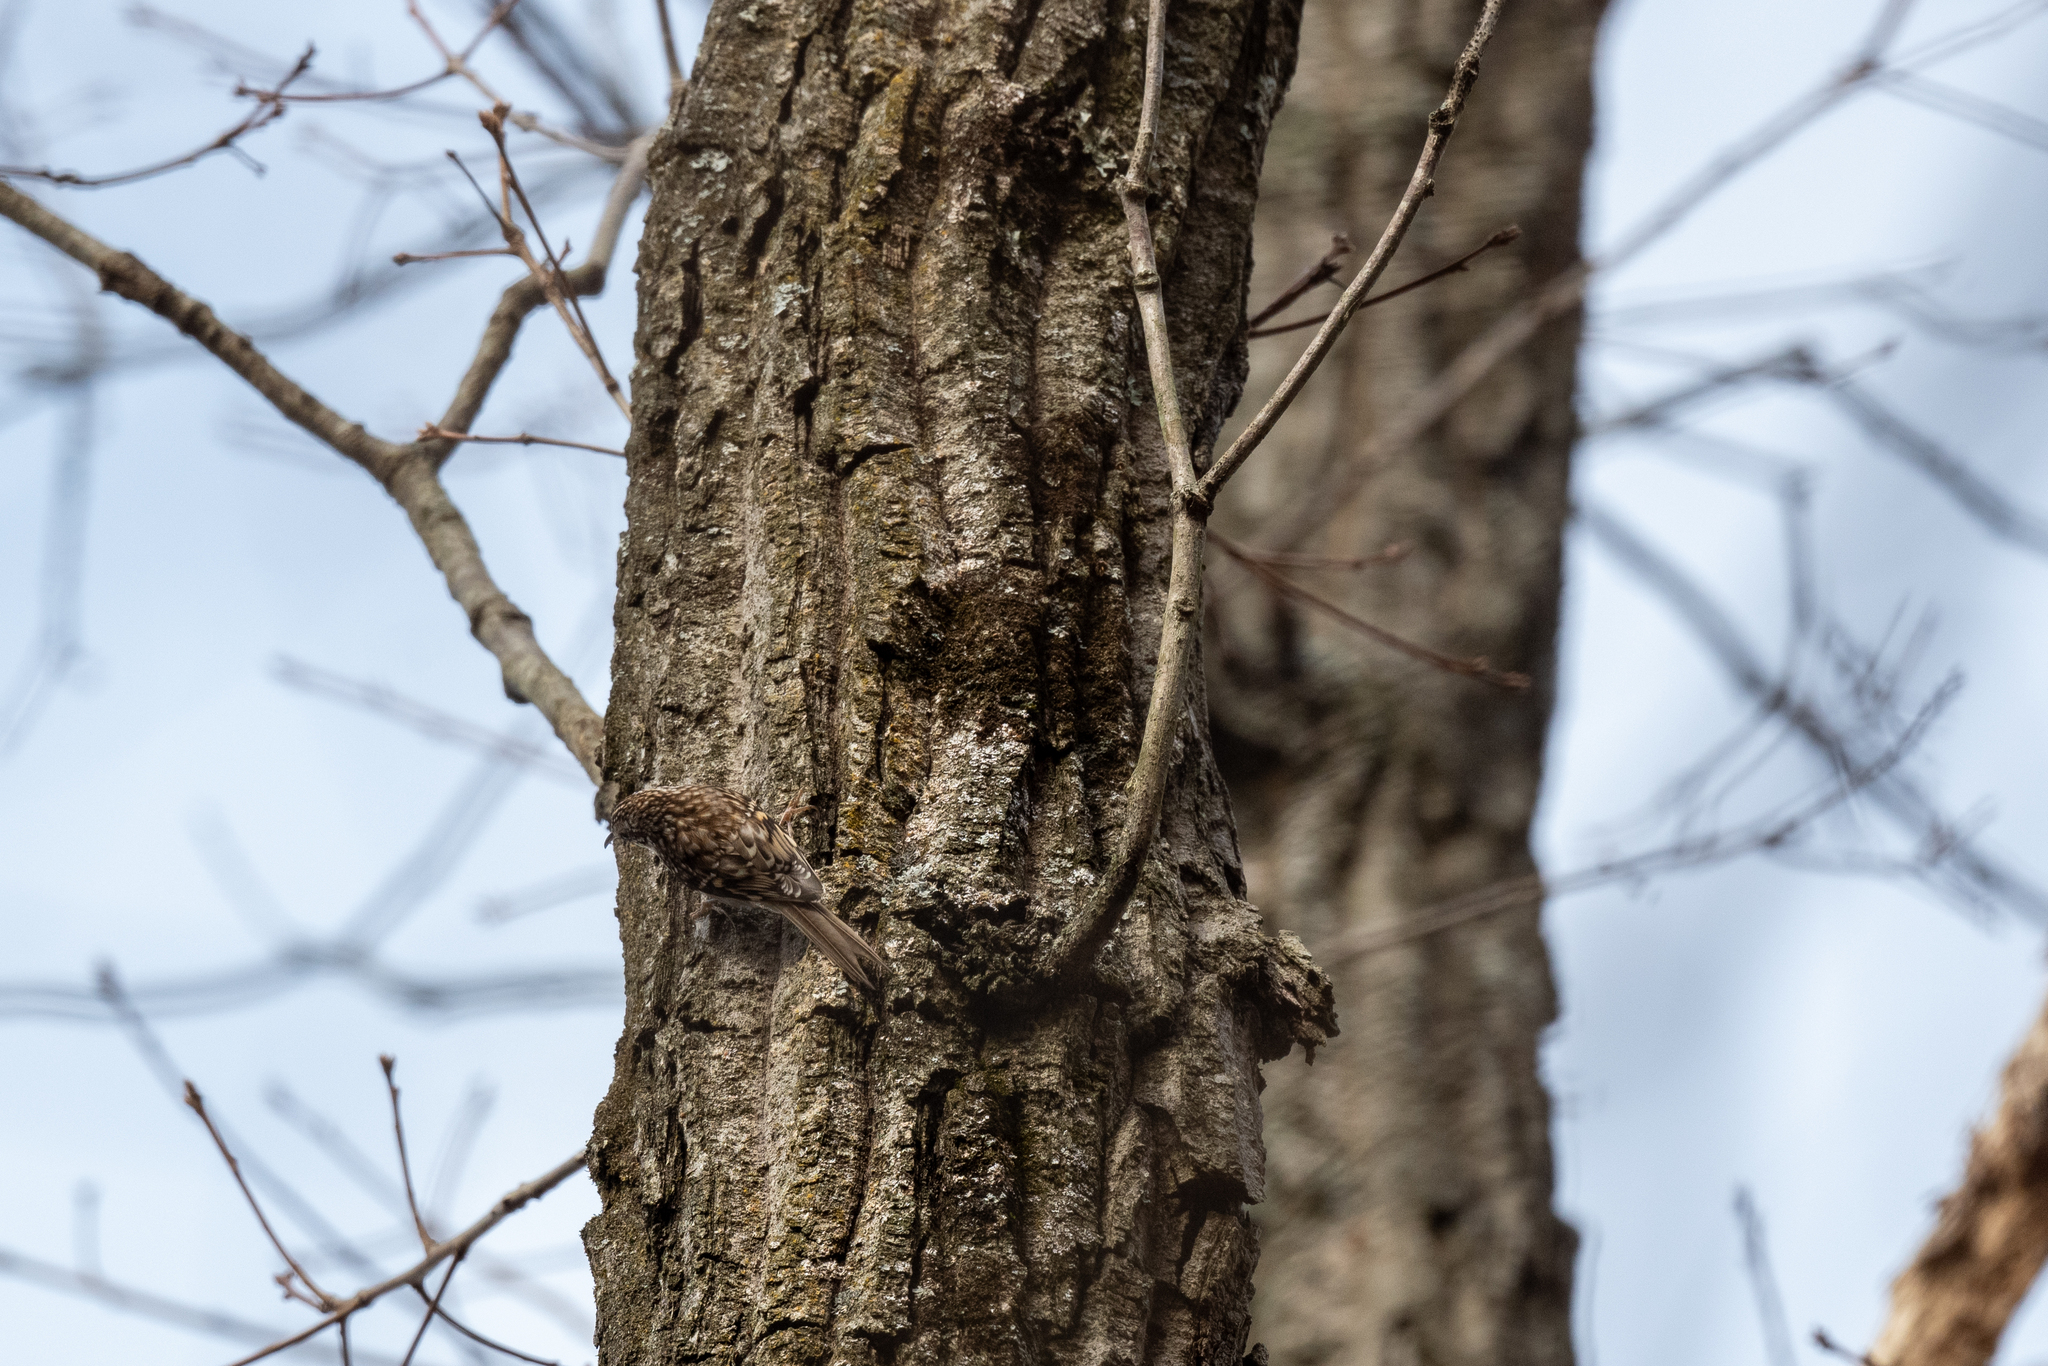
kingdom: Animalia
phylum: Chordata
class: Aves
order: Passeriformes
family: Certhiidae
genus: Certhia
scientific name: Certhia americana
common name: Brown creeper
